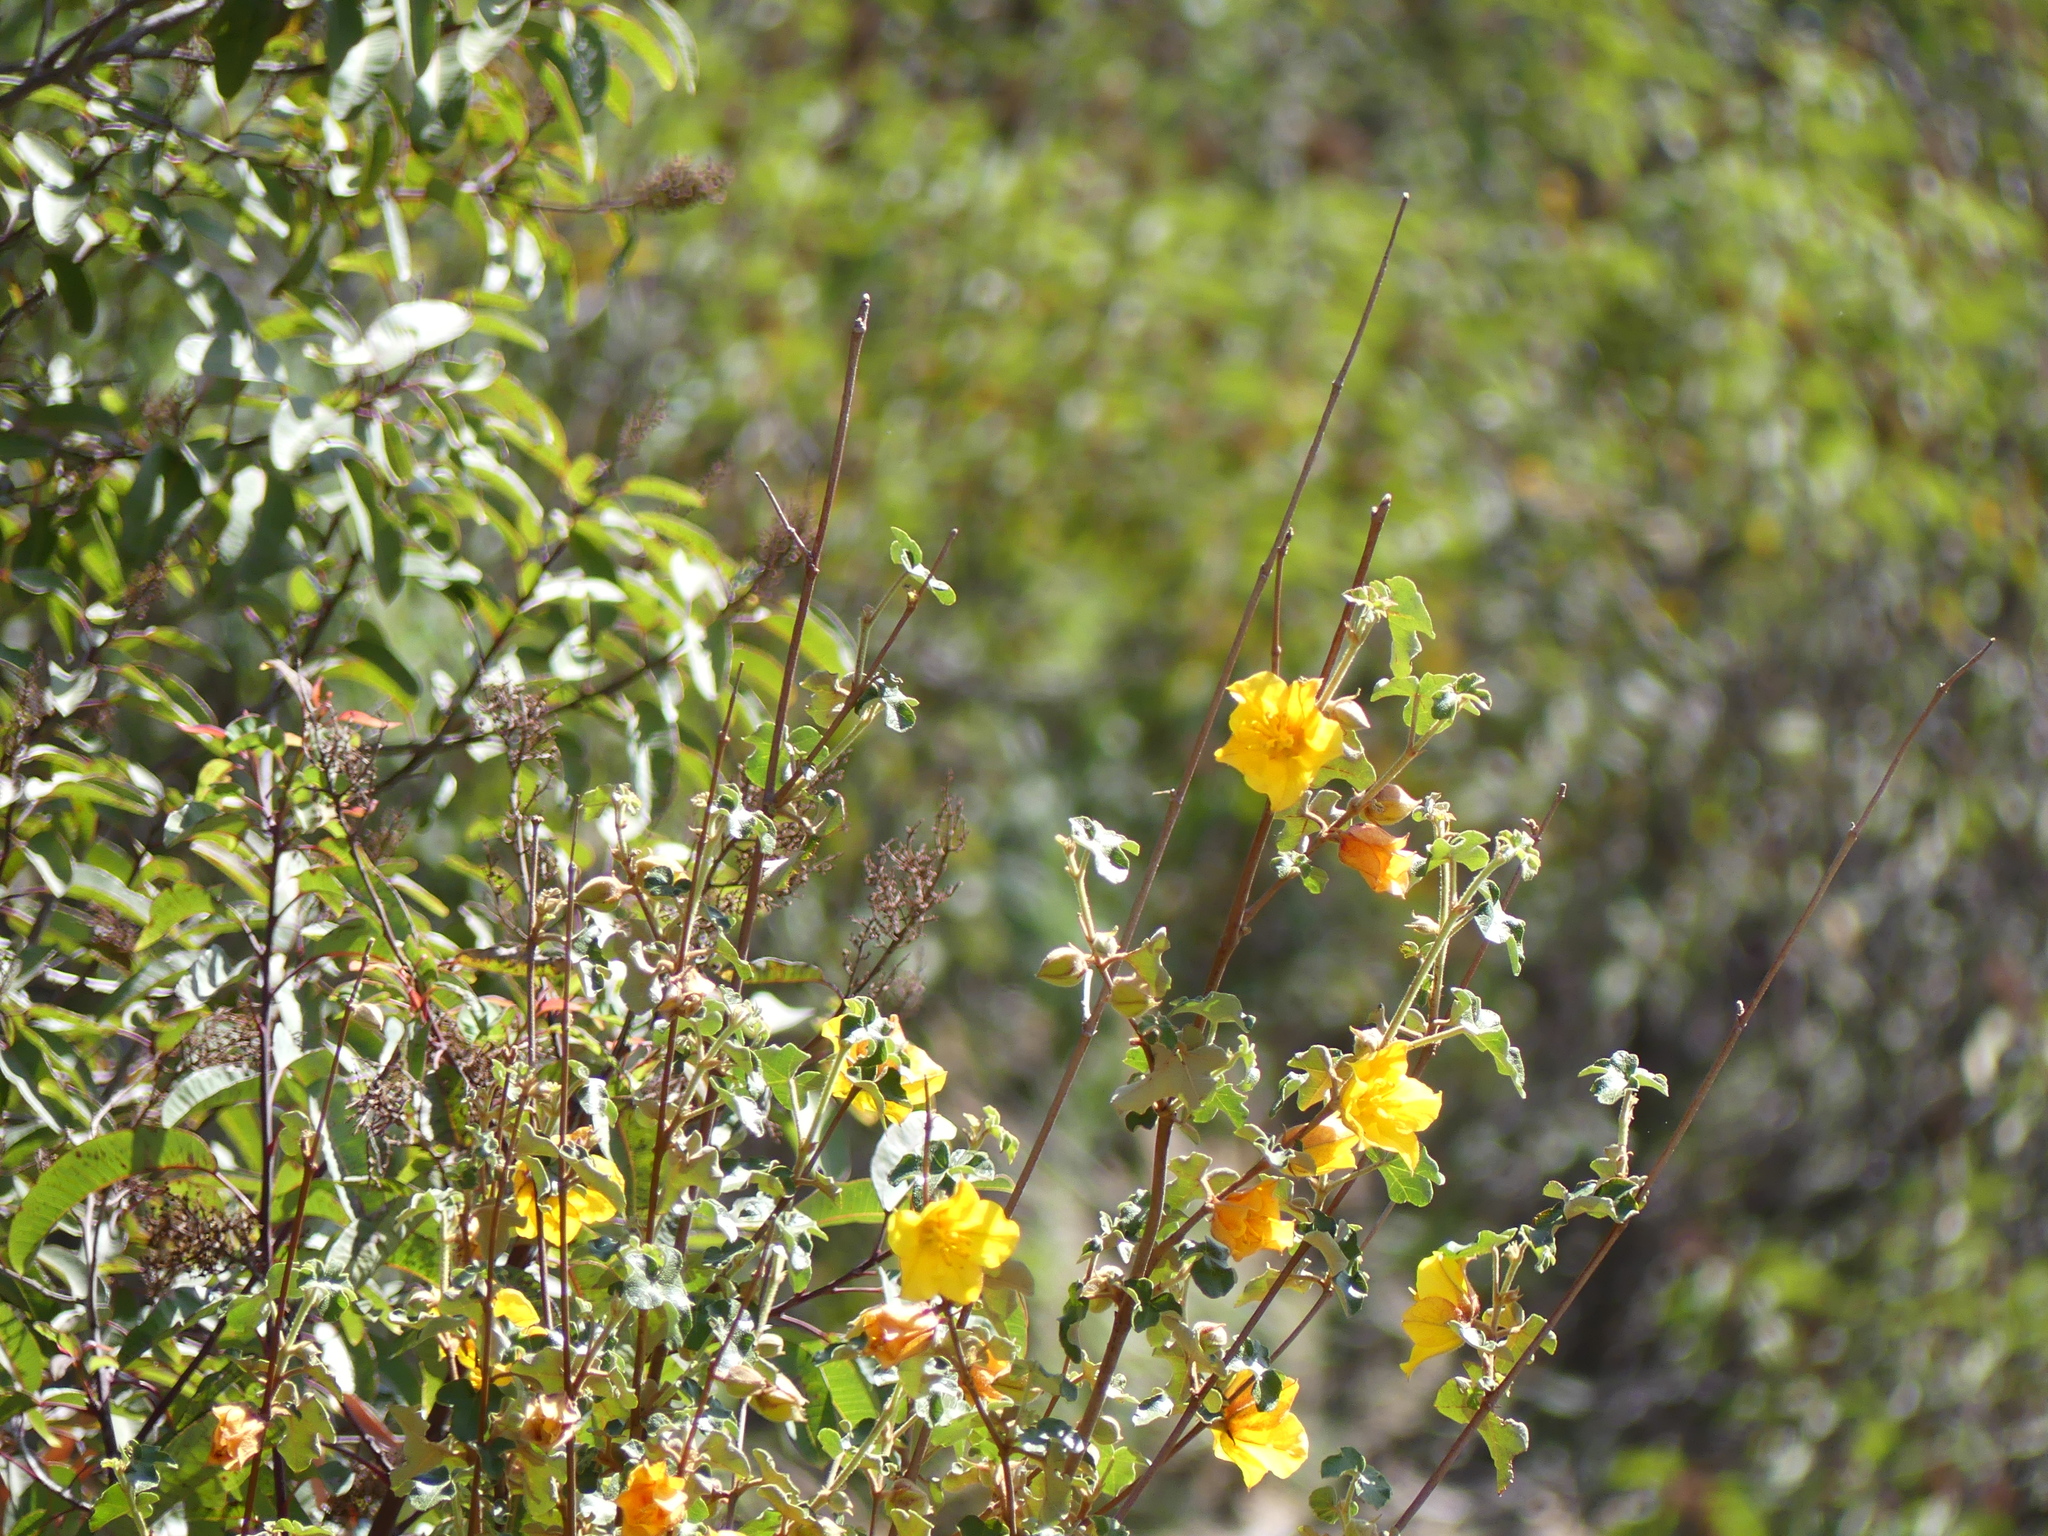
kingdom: Plantae
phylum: Tracheophyta
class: Magnoliopsida
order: Malvales
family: Malvaceae
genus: Fremontodendron
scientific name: Fremontodendron californicum
